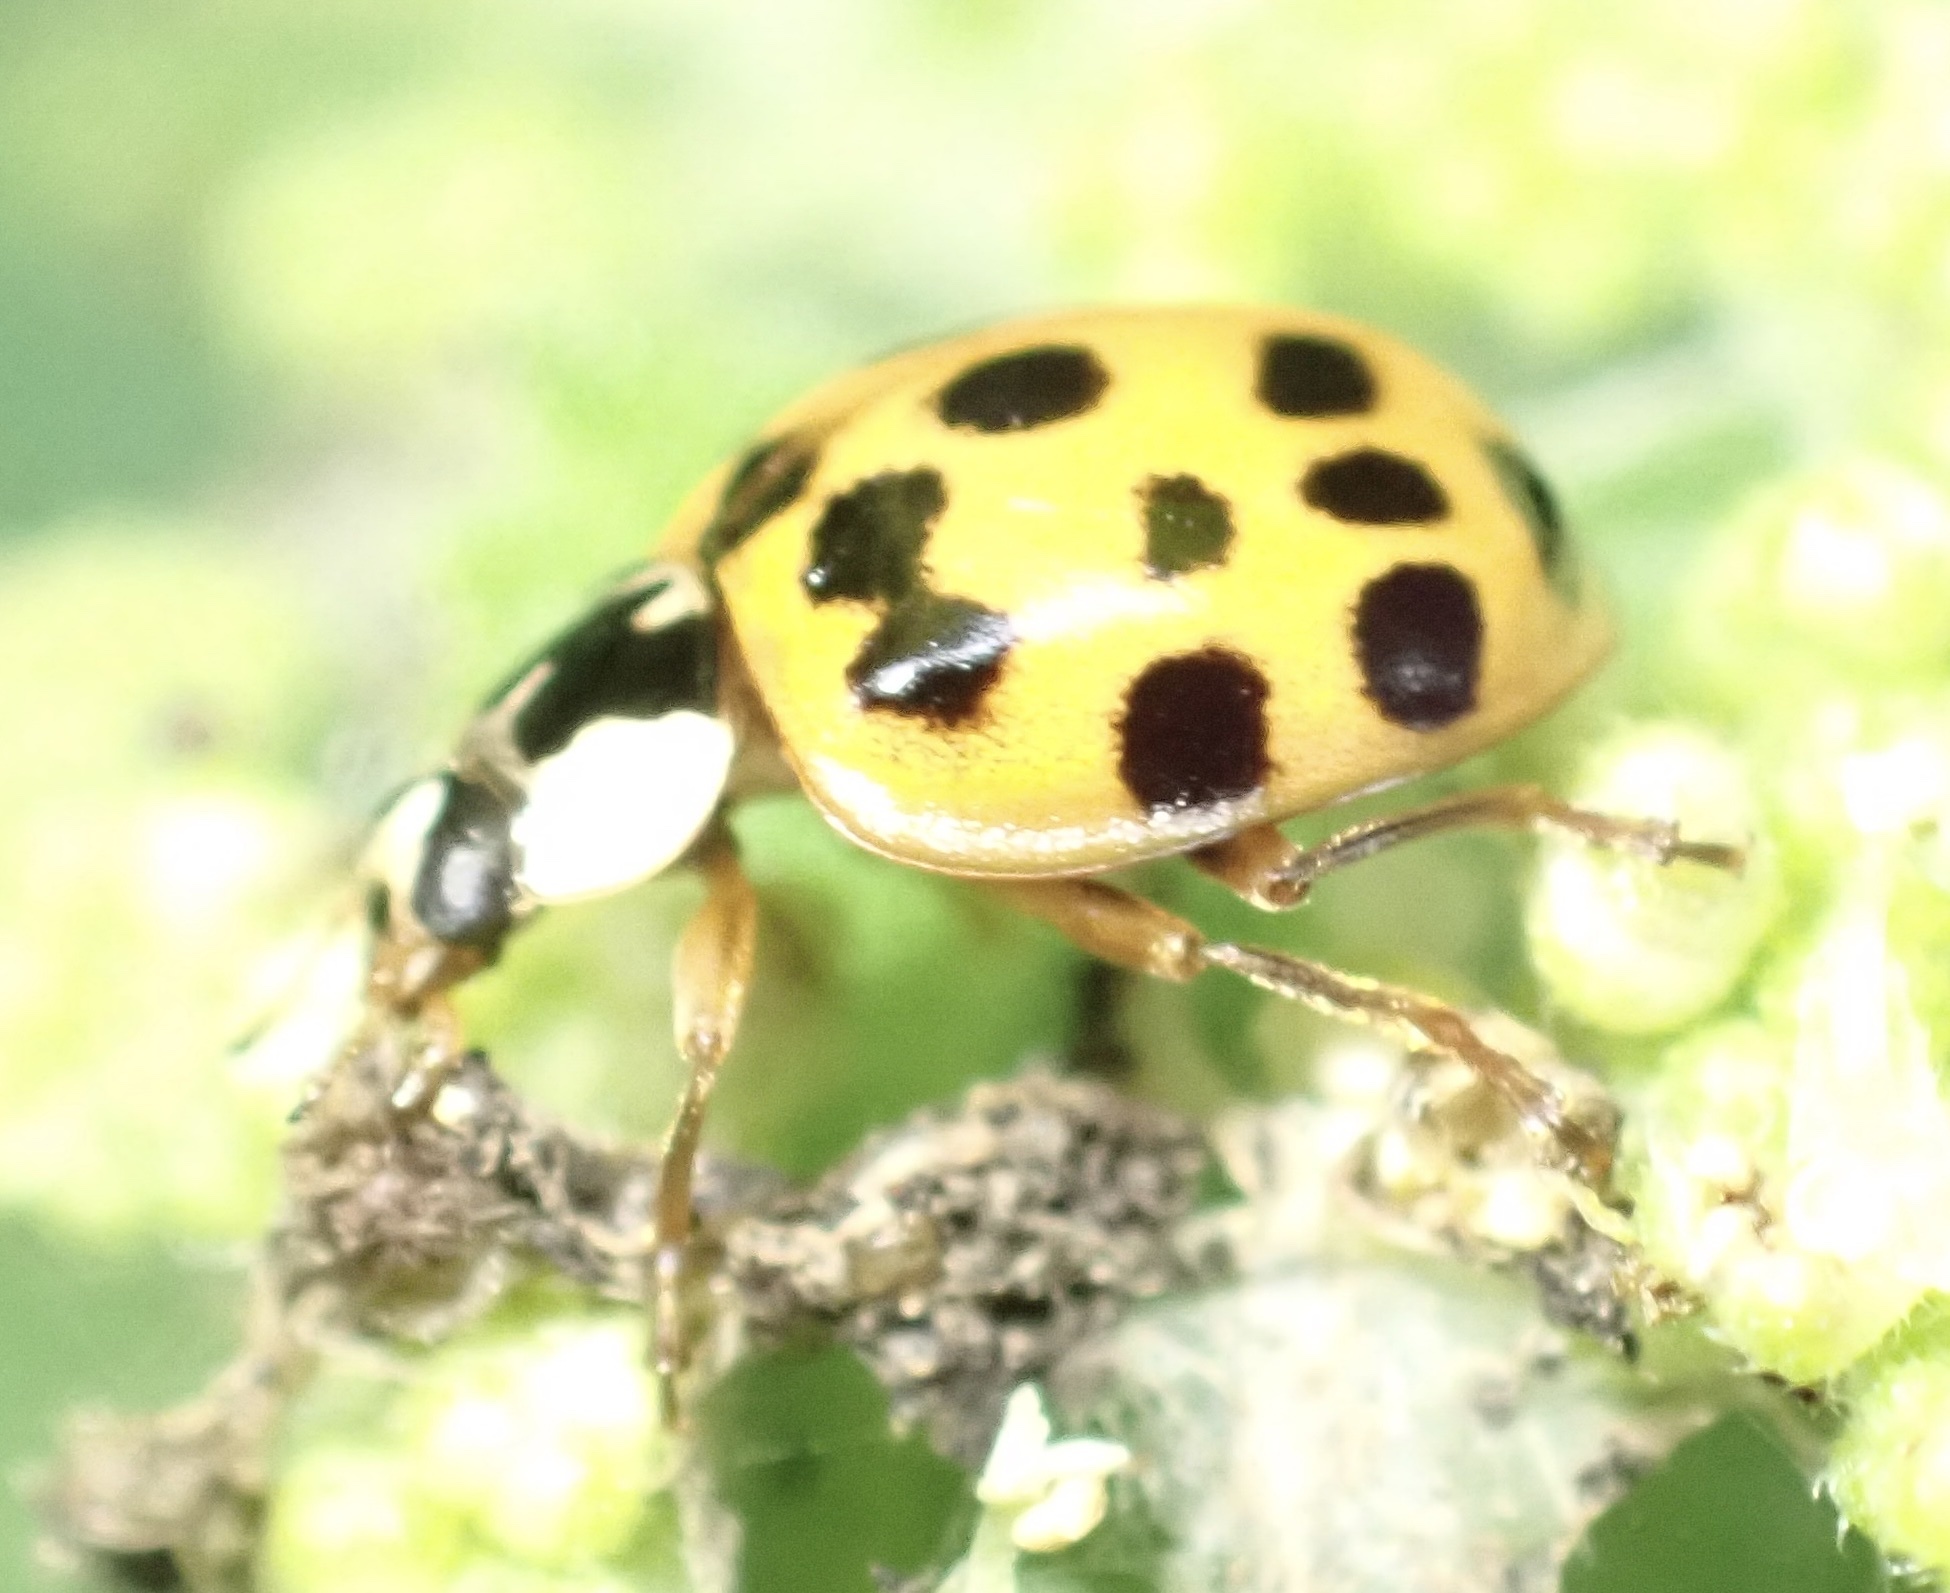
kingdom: Animalia
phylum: Arthropoda
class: Insecta
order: Coleoptera
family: Coccinellidae
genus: Harmonia
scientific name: Harmonia axyridis
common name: Harlequin ladybird
